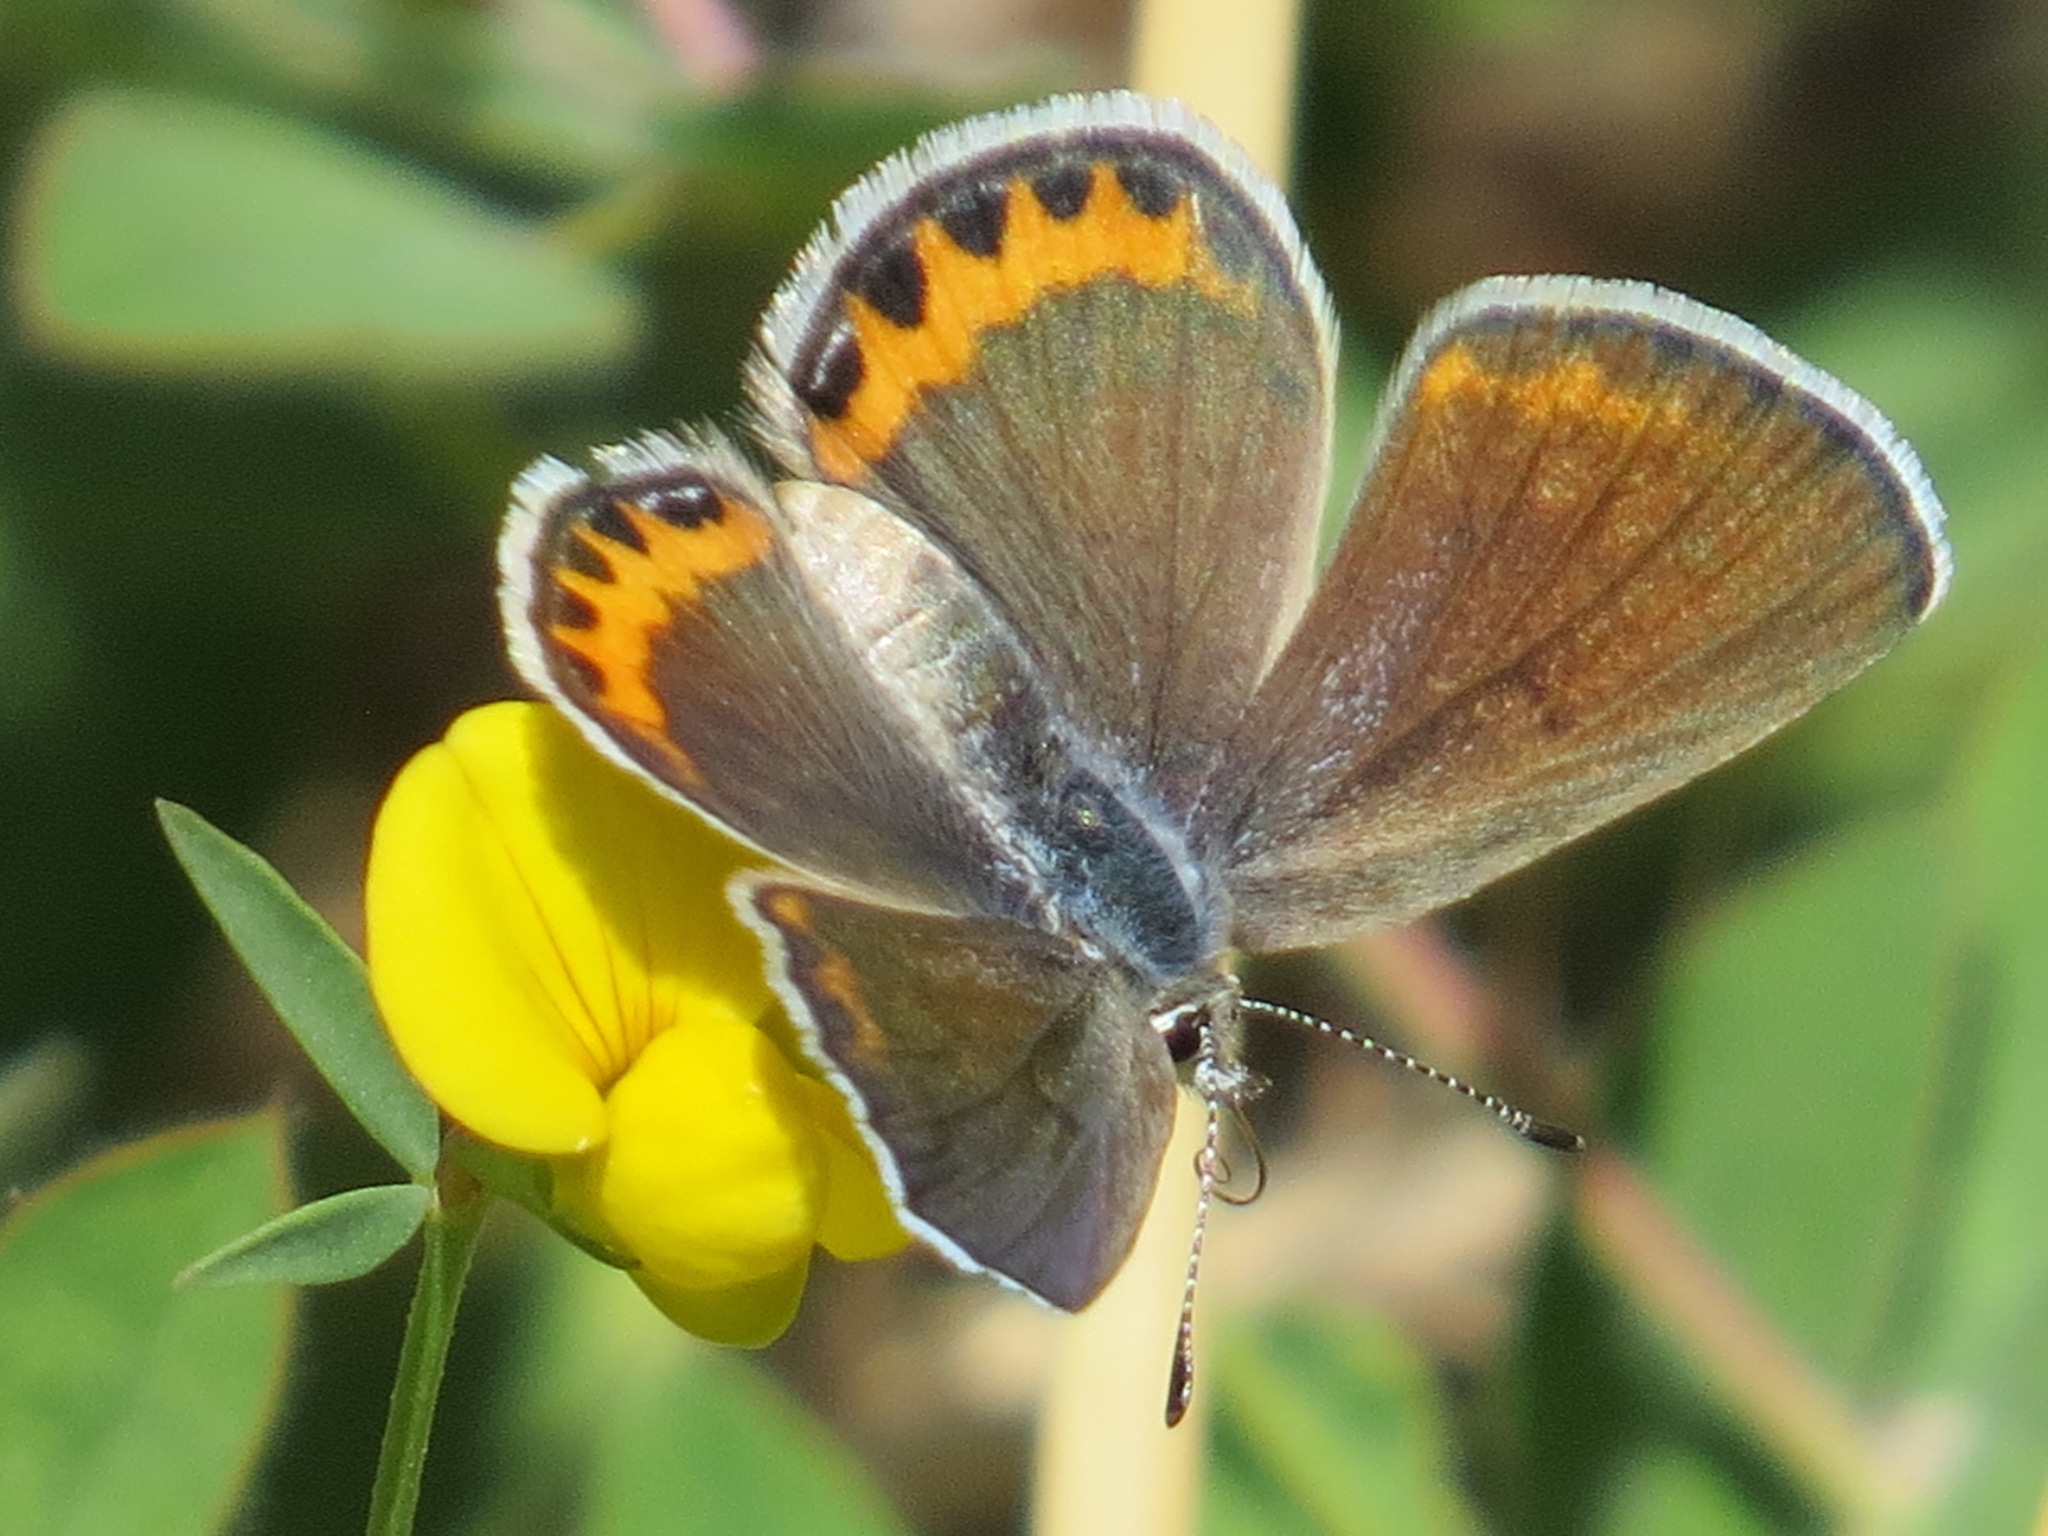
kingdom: Animalia
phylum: Arthropoda
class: Insecta
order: Lepidoptera
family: Lycaenidae
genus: Icaricia
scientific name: Icaricia acmon
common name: Acmon blue
